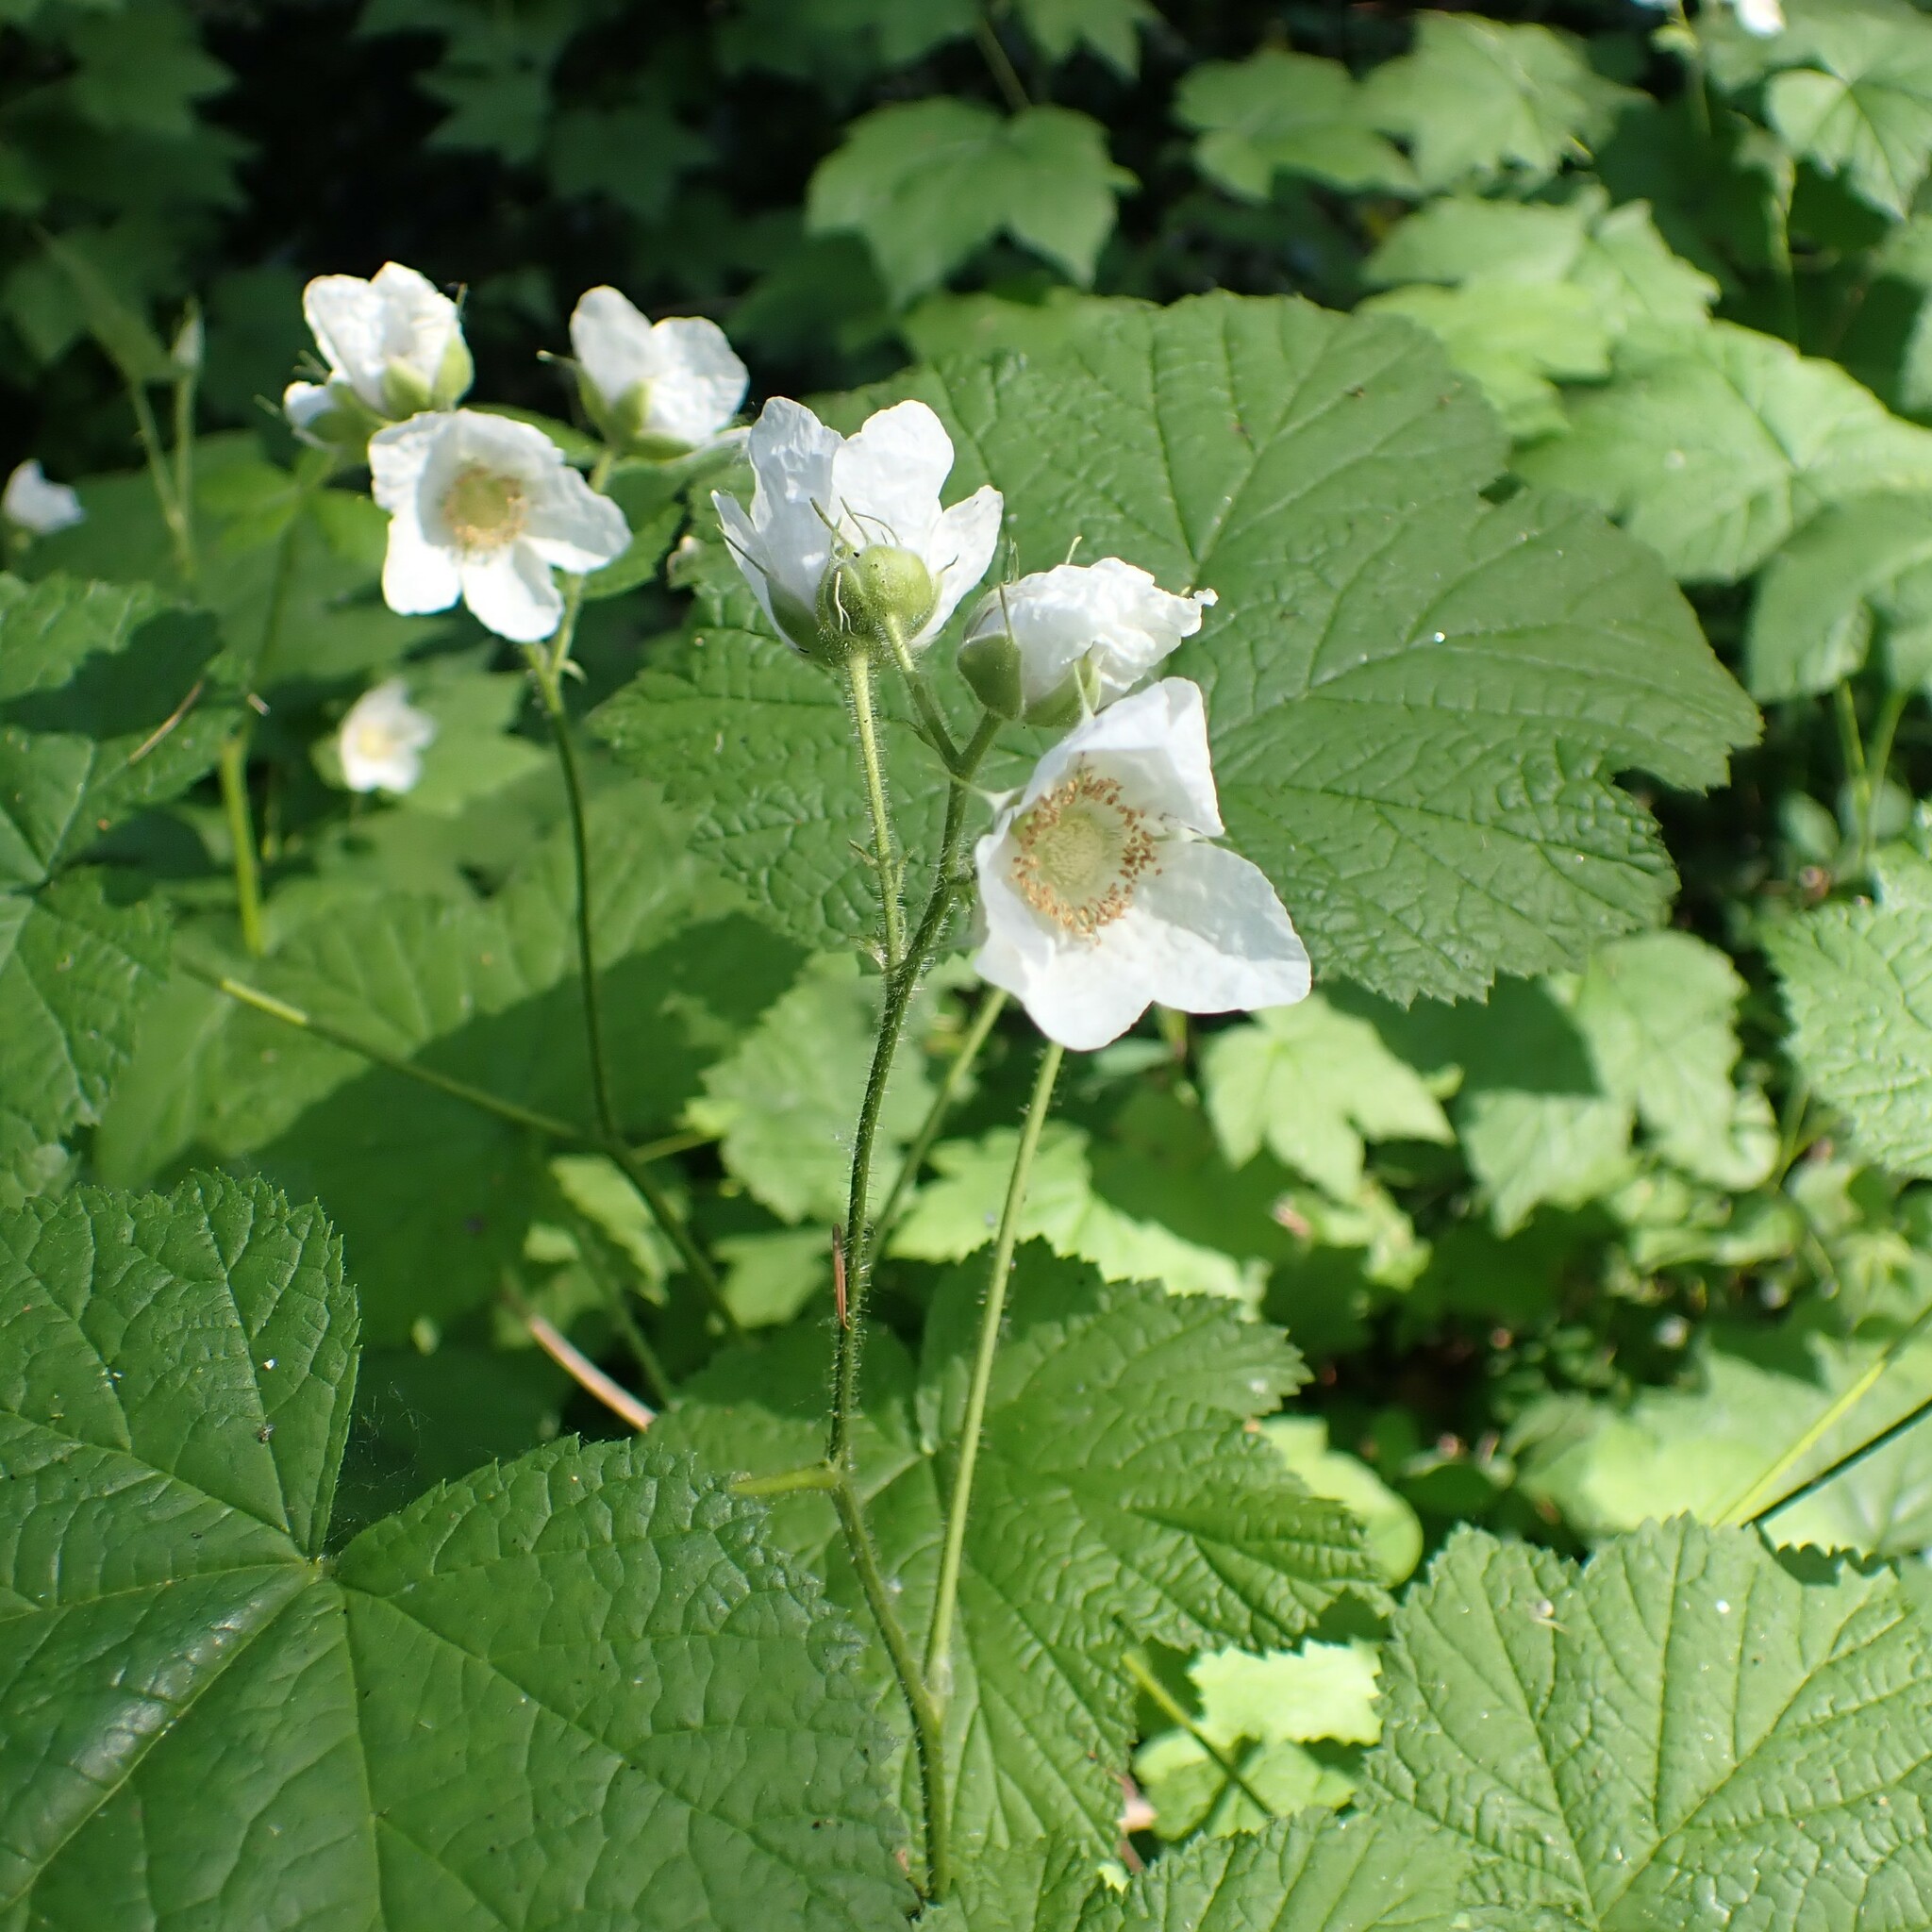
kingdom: Plantae
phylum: Tracheophyta
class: Magnoliopsida
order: Rosales
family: Rosaceae
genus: Rubus
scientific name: Rubus parviflorus
